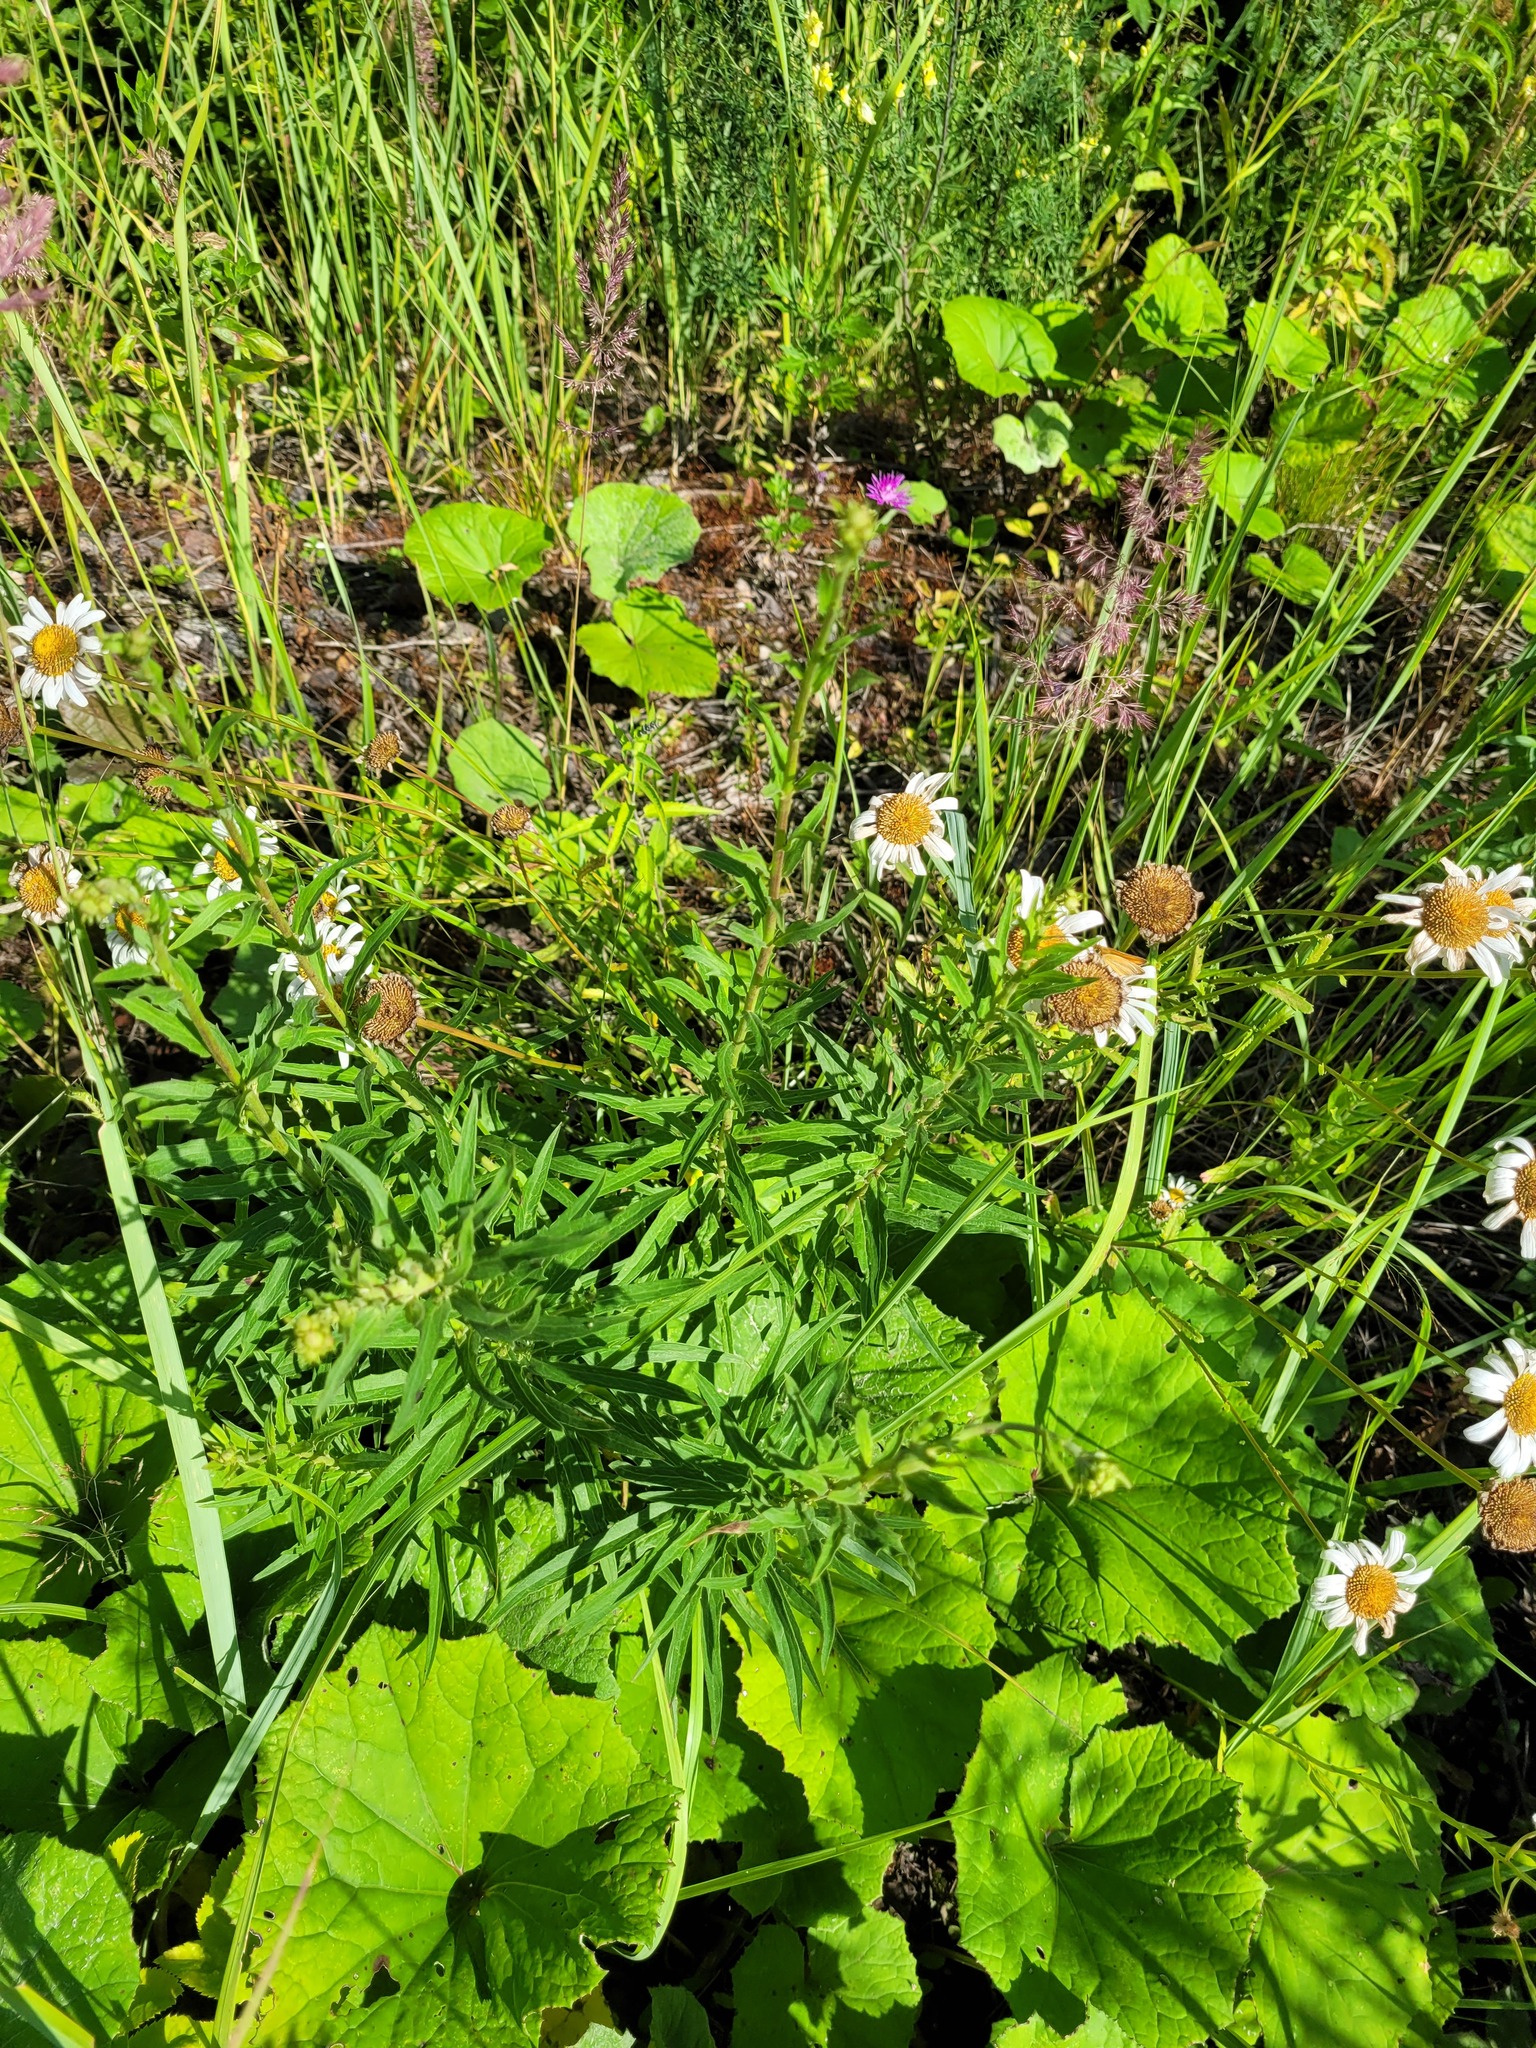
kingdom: Plantae
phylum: Tracheophyta
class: Magnoliopsida
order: Asterales
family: Asteraceae
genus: Hieracium
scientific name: Hieracium umbellatum
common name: Northern hawkweed
